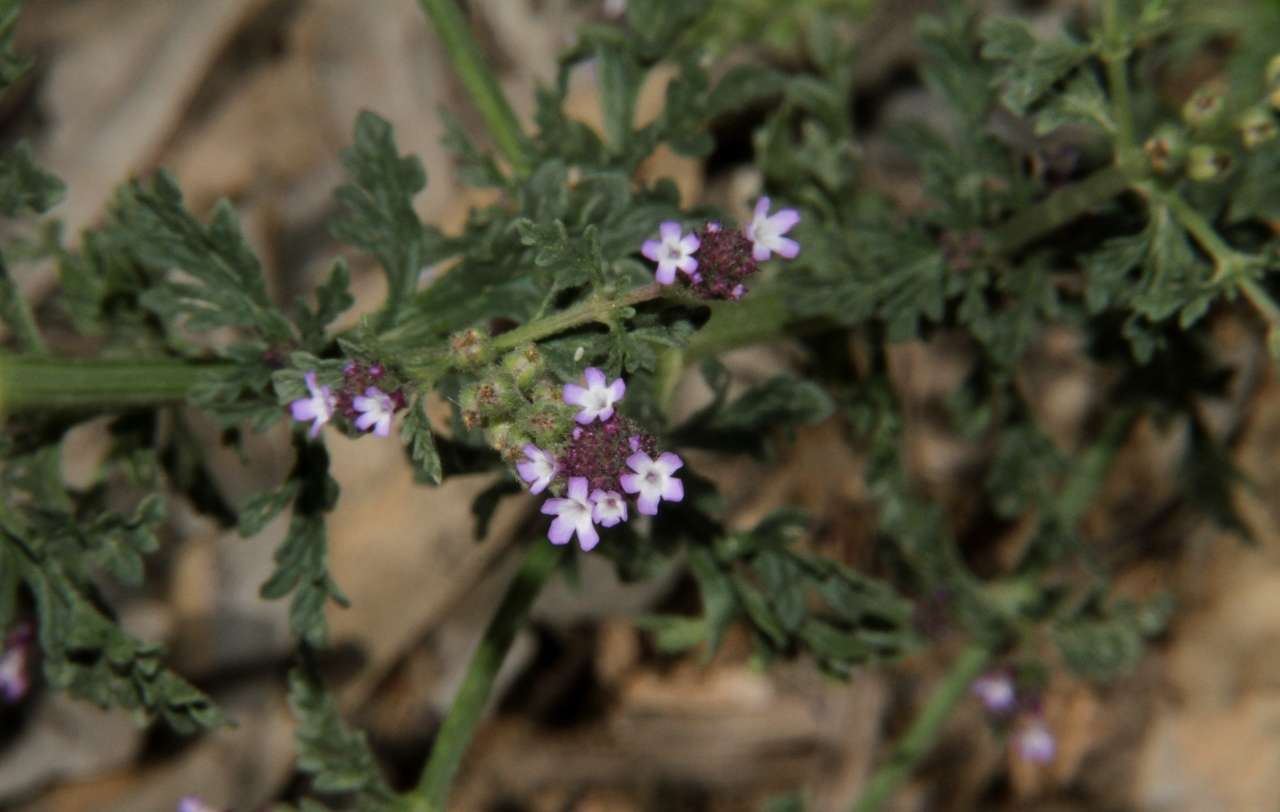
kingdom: Plantae
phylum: Tracheophyta
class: Magnoliopsida
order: Lamiales
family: Verbenaceae
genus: Verbena
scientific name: Verbena supina
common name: Trailing vervain
